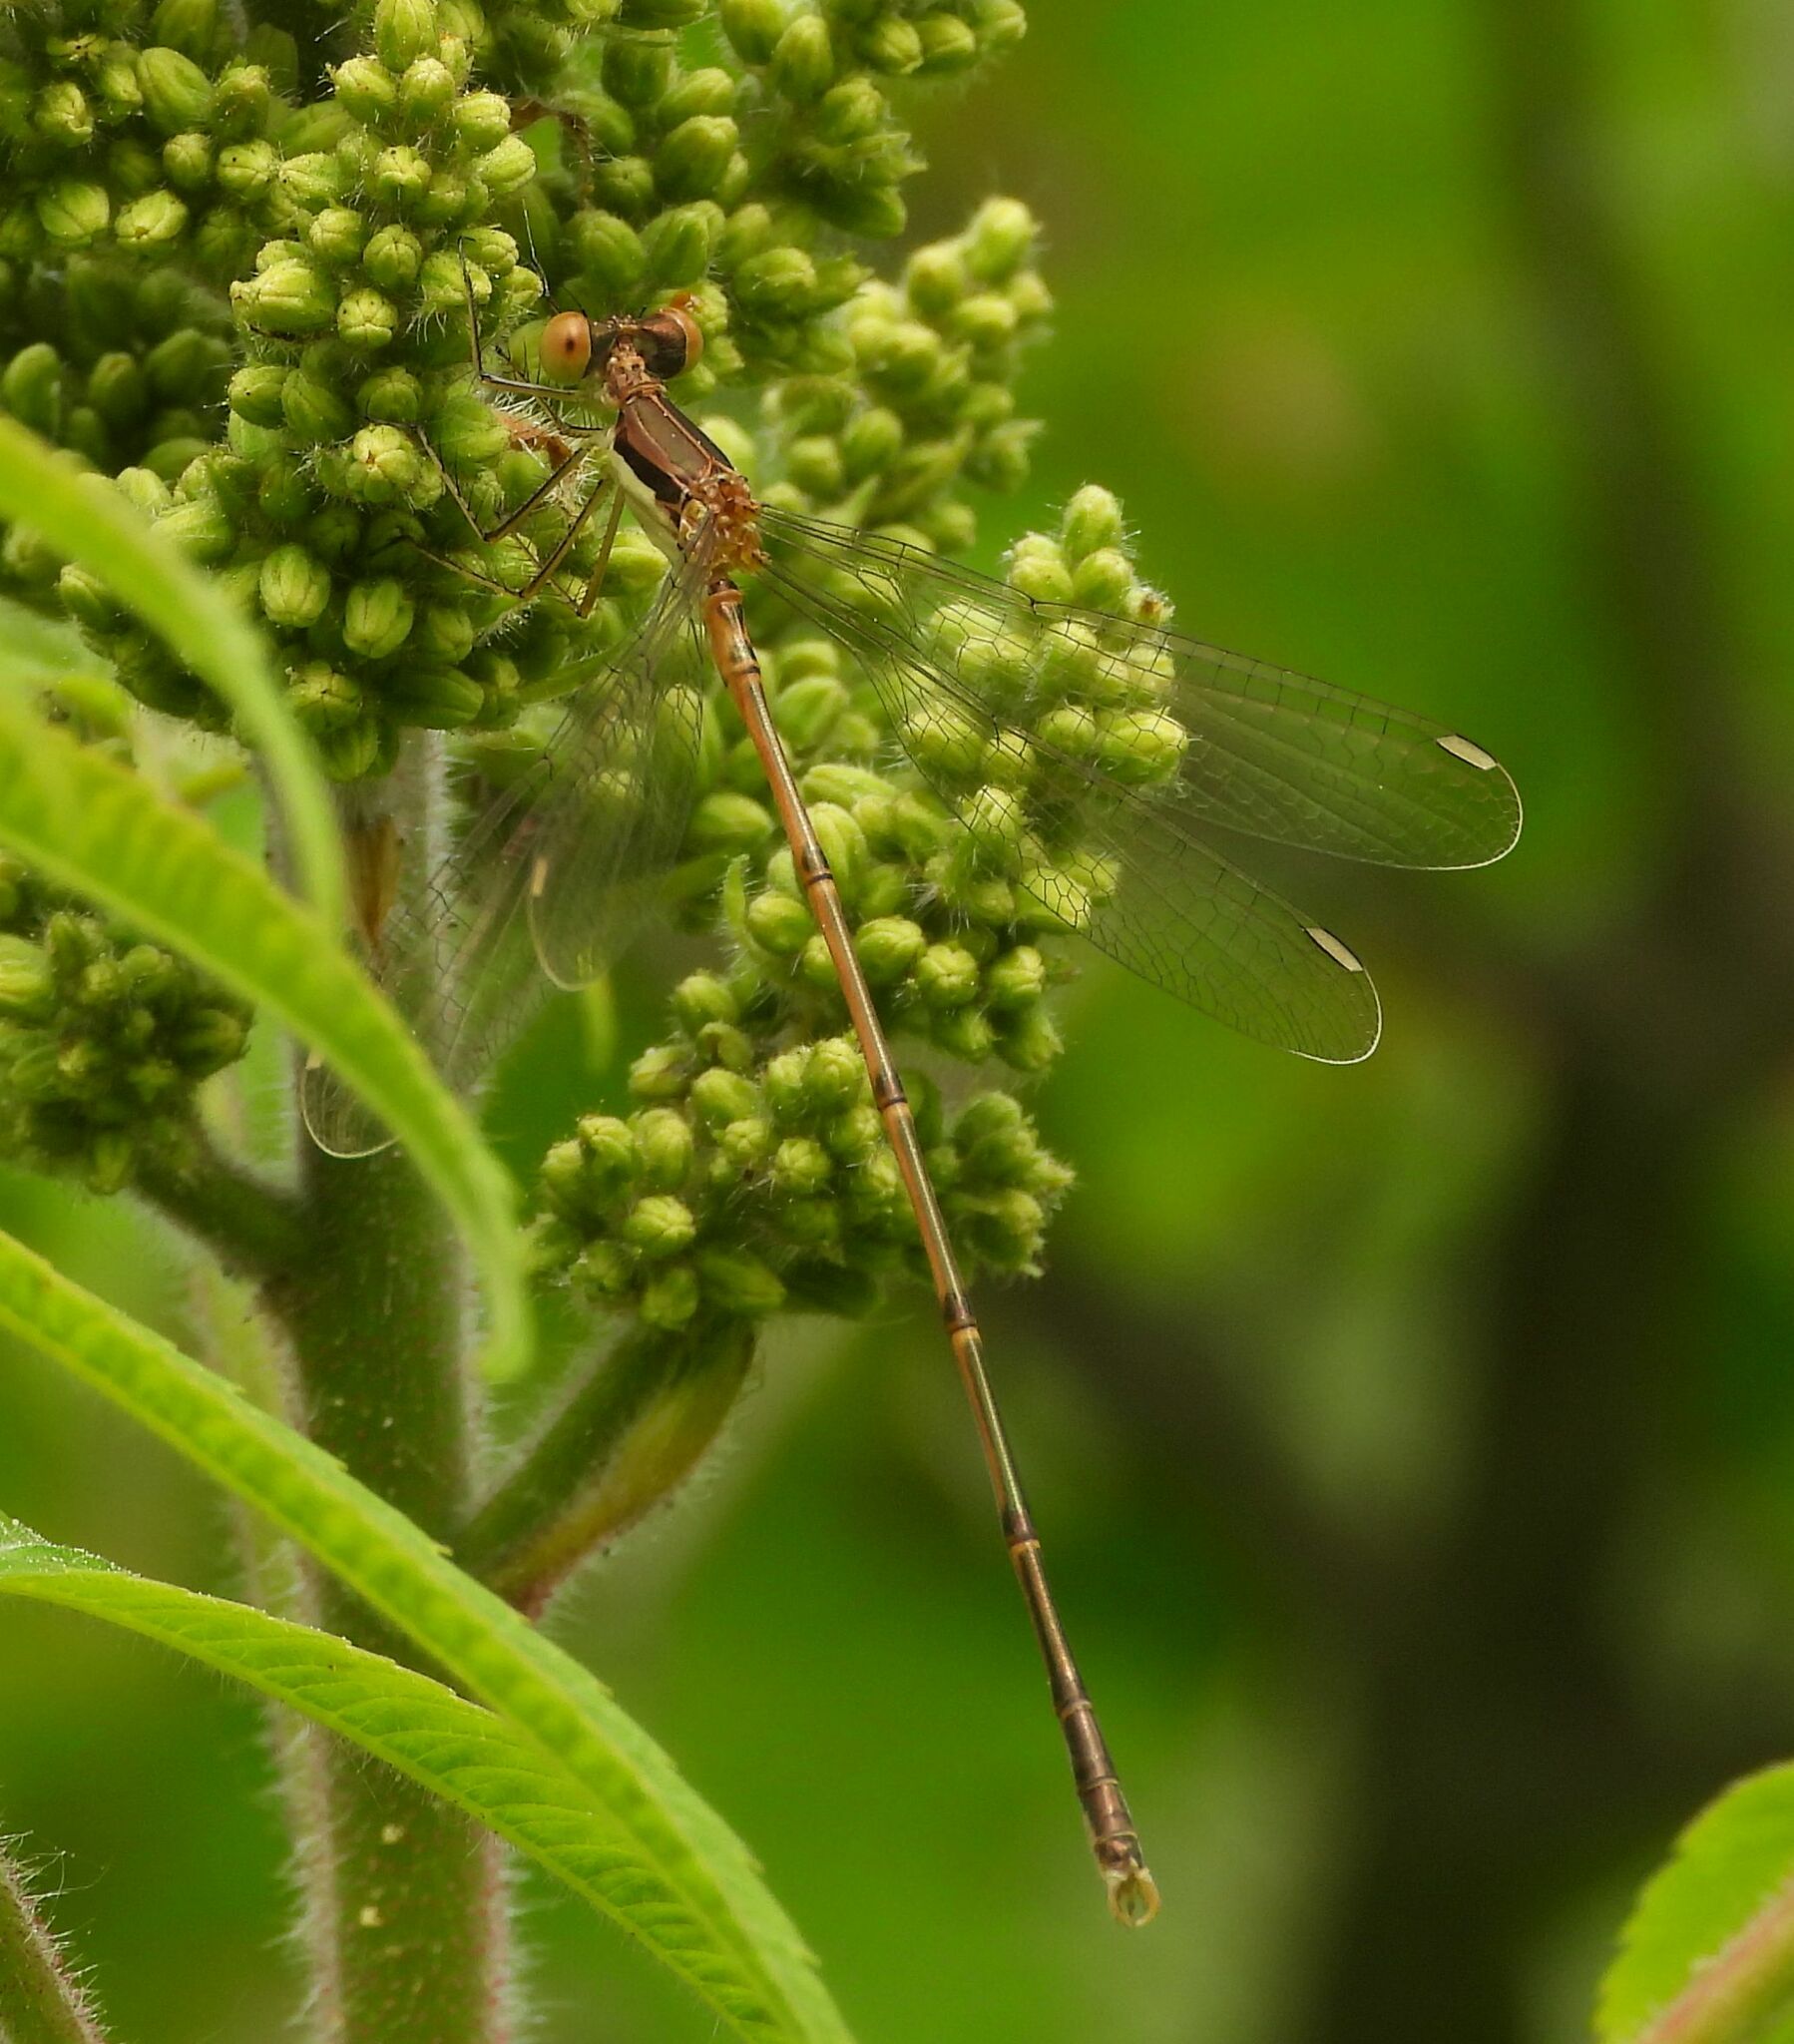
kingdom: Animalia
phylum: Arthropoda
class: Insecta
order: Odonata
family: Lestidae
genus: Lestes
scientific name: Lestes rectangularis
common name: Slender spreadwing
